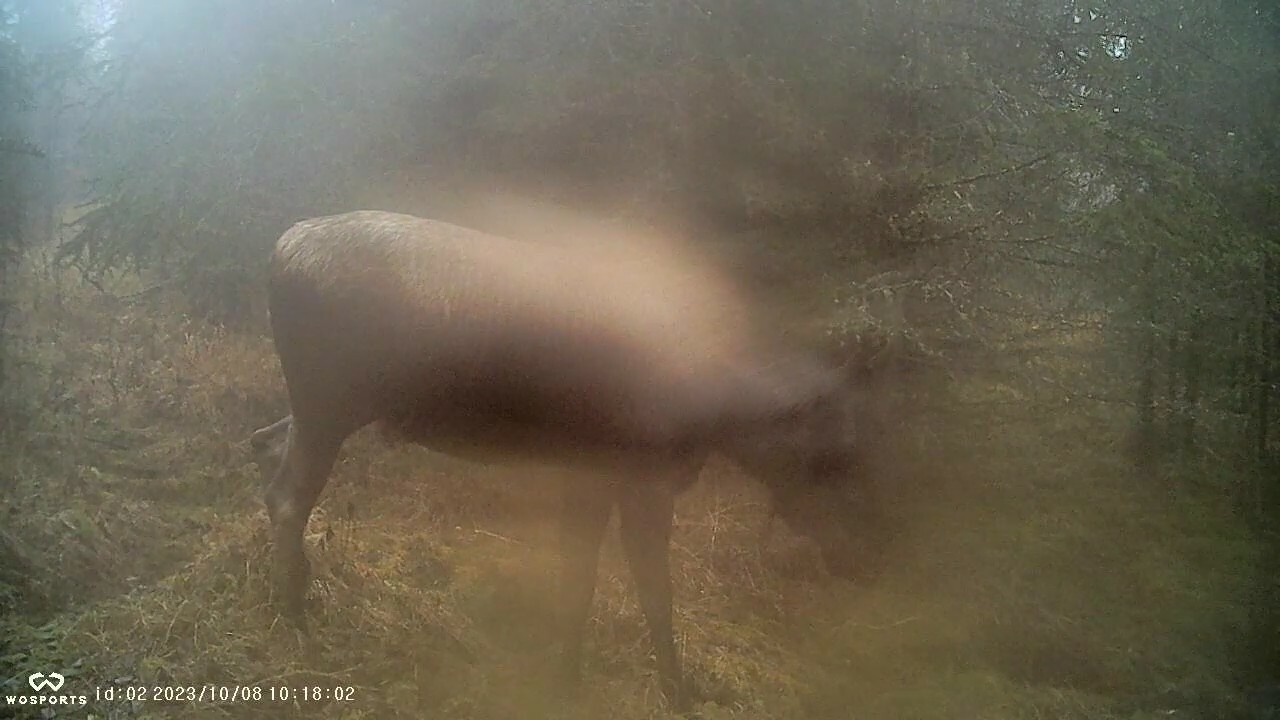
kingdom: Animalia
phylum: Chordata
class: Mammalia
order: Artiodactyla
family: Cervidae
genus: Alces
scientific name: Alces alces
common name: Moose
